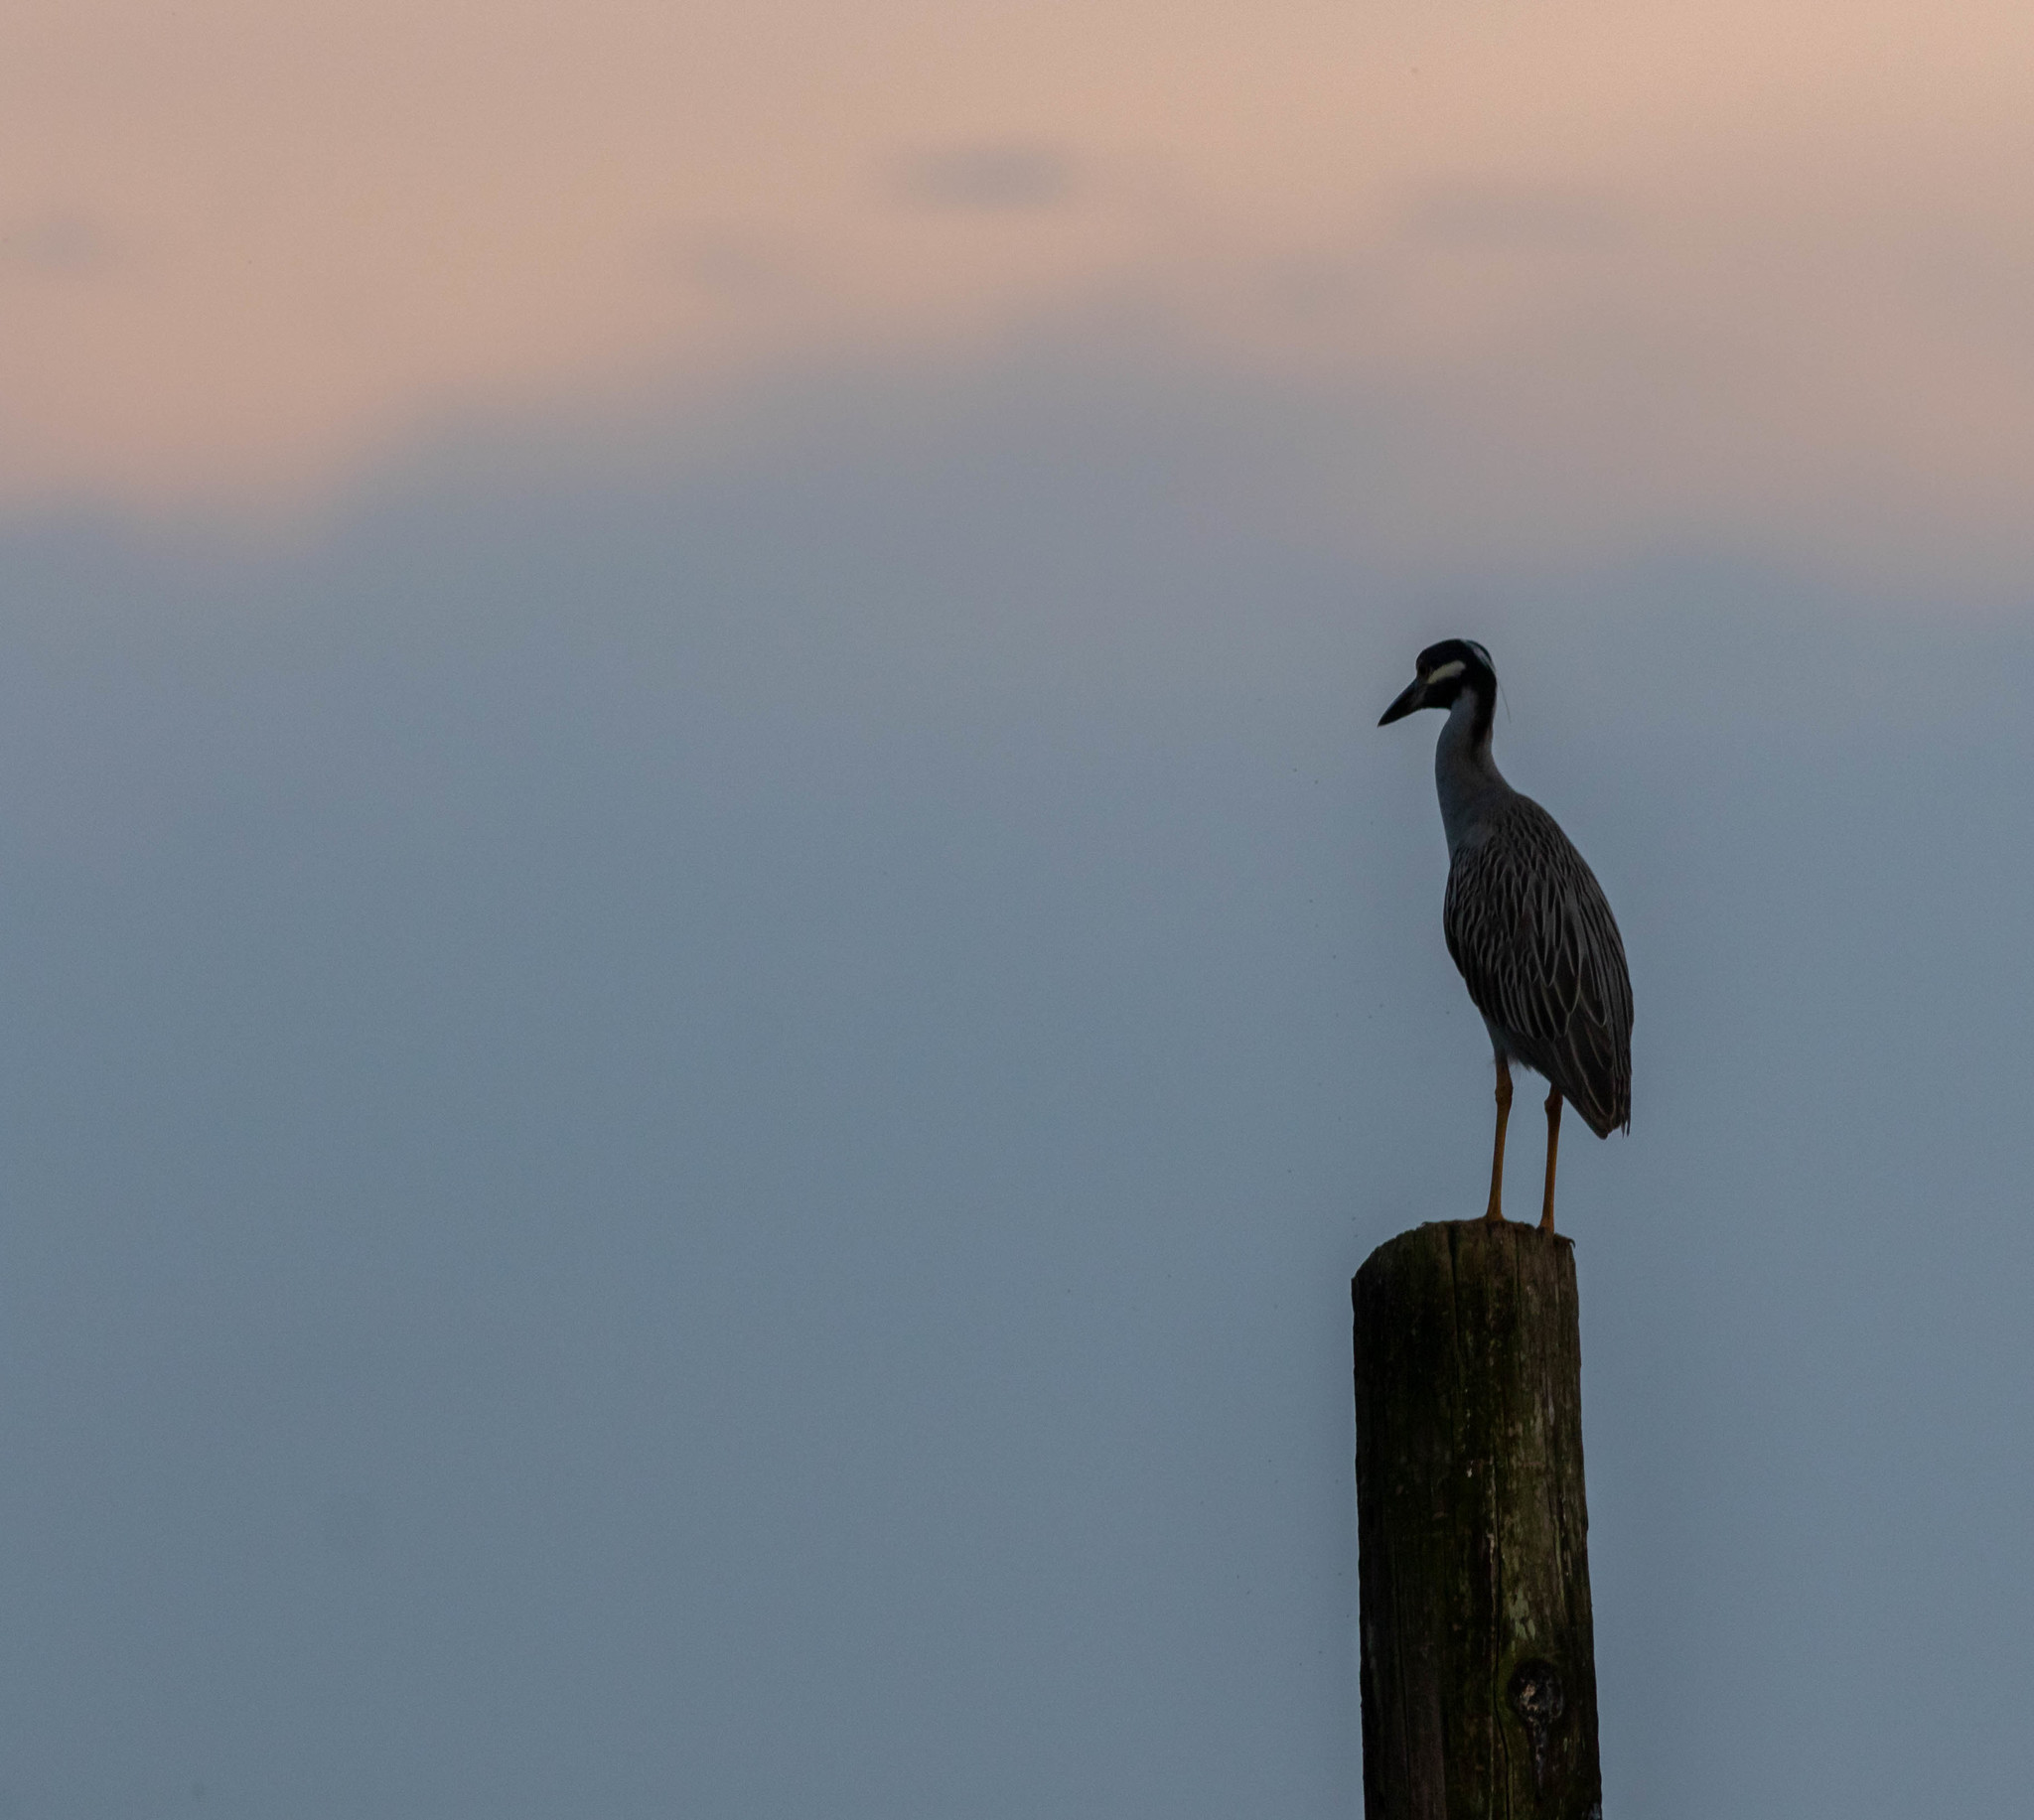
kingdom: Animalia
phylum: Chordata
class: Aves
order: Pelecaniformes
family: Ardeidae
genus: Nyctanassa
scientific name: Nyctanassa violacea
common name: Yellow-crowned night heron
